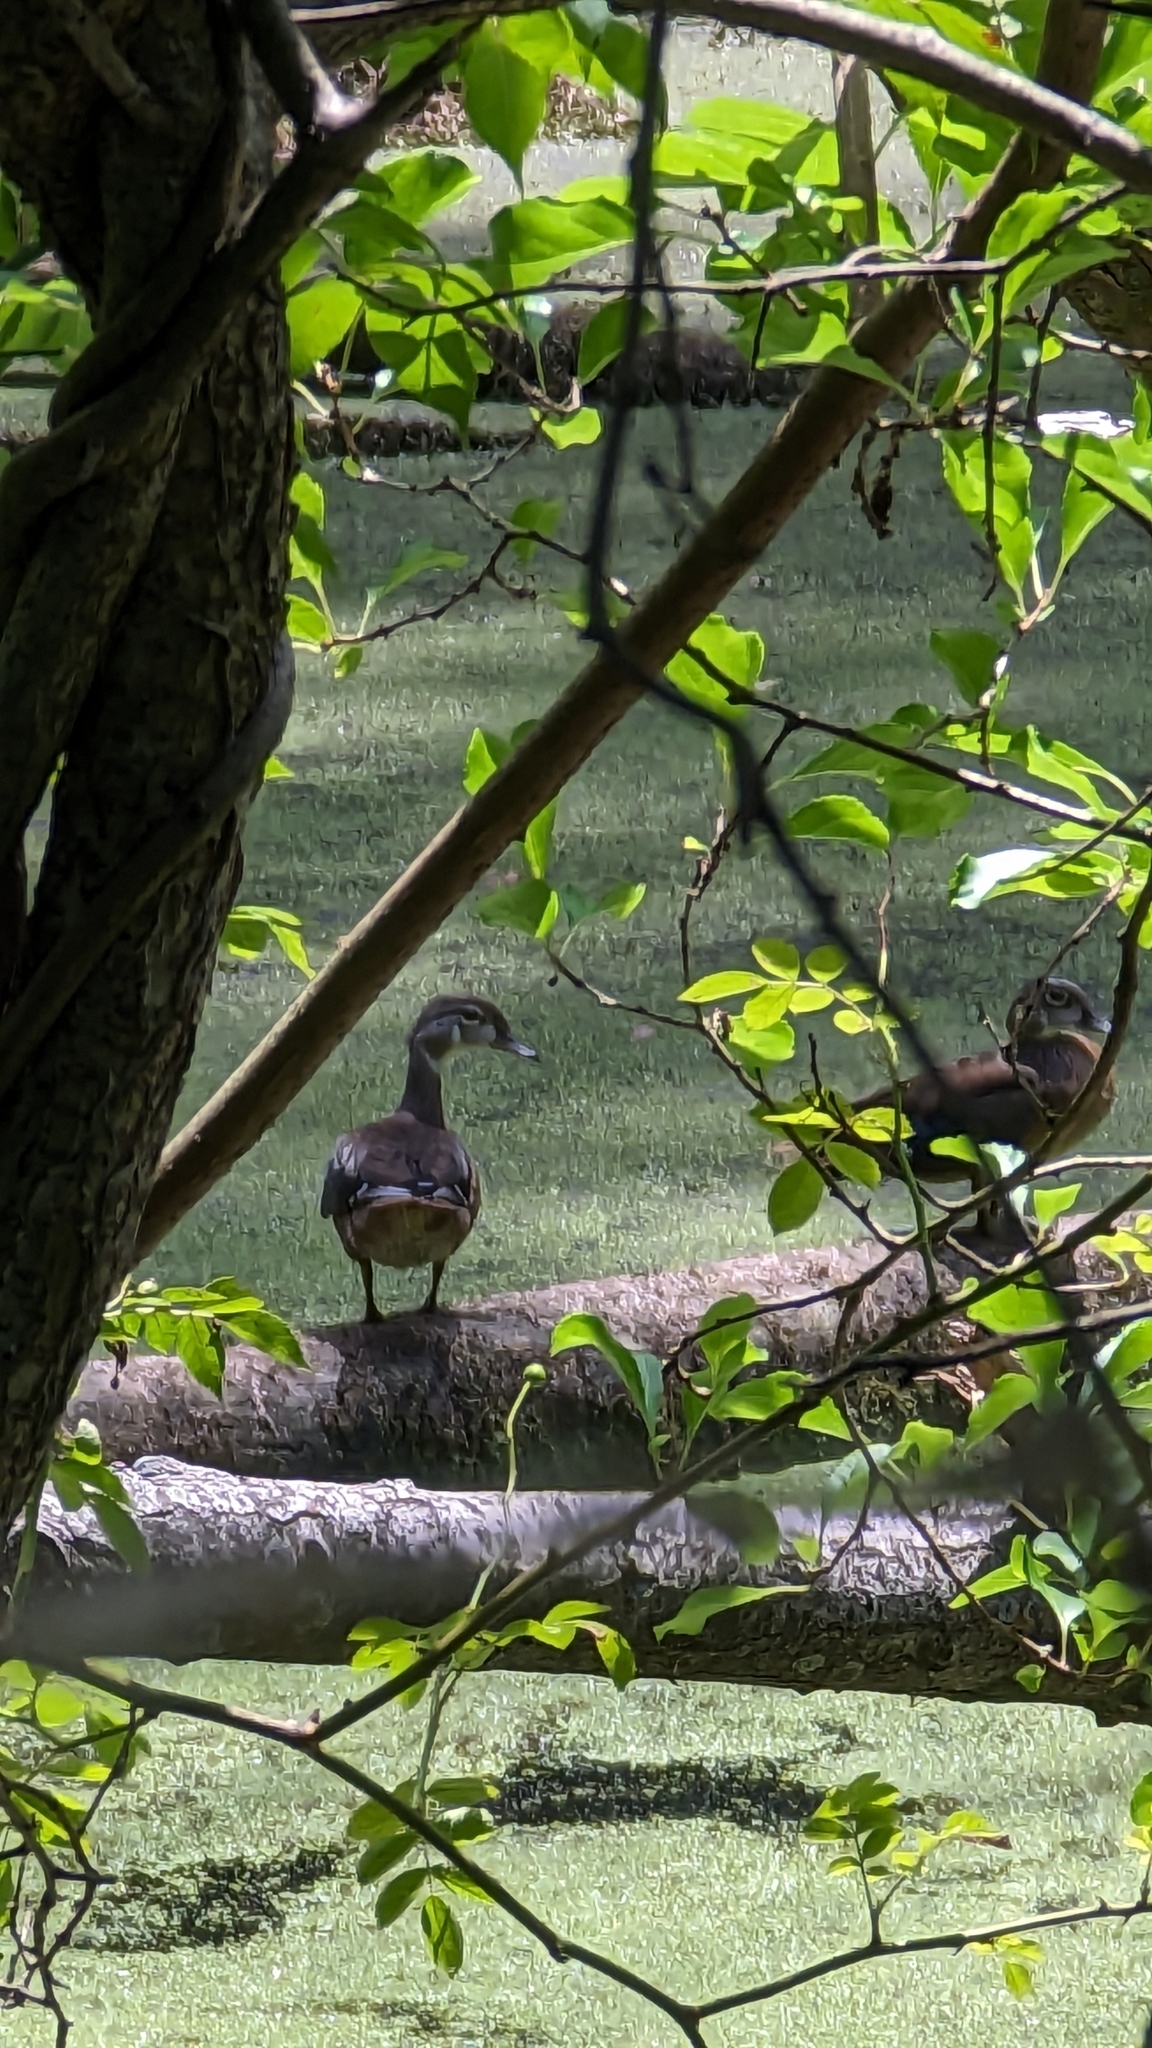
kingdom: Animalia
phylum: Chordata
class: Aves
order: Anseriformes
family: Anatidae
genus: Aix
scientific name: Aix sponsa
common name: Wood duck
